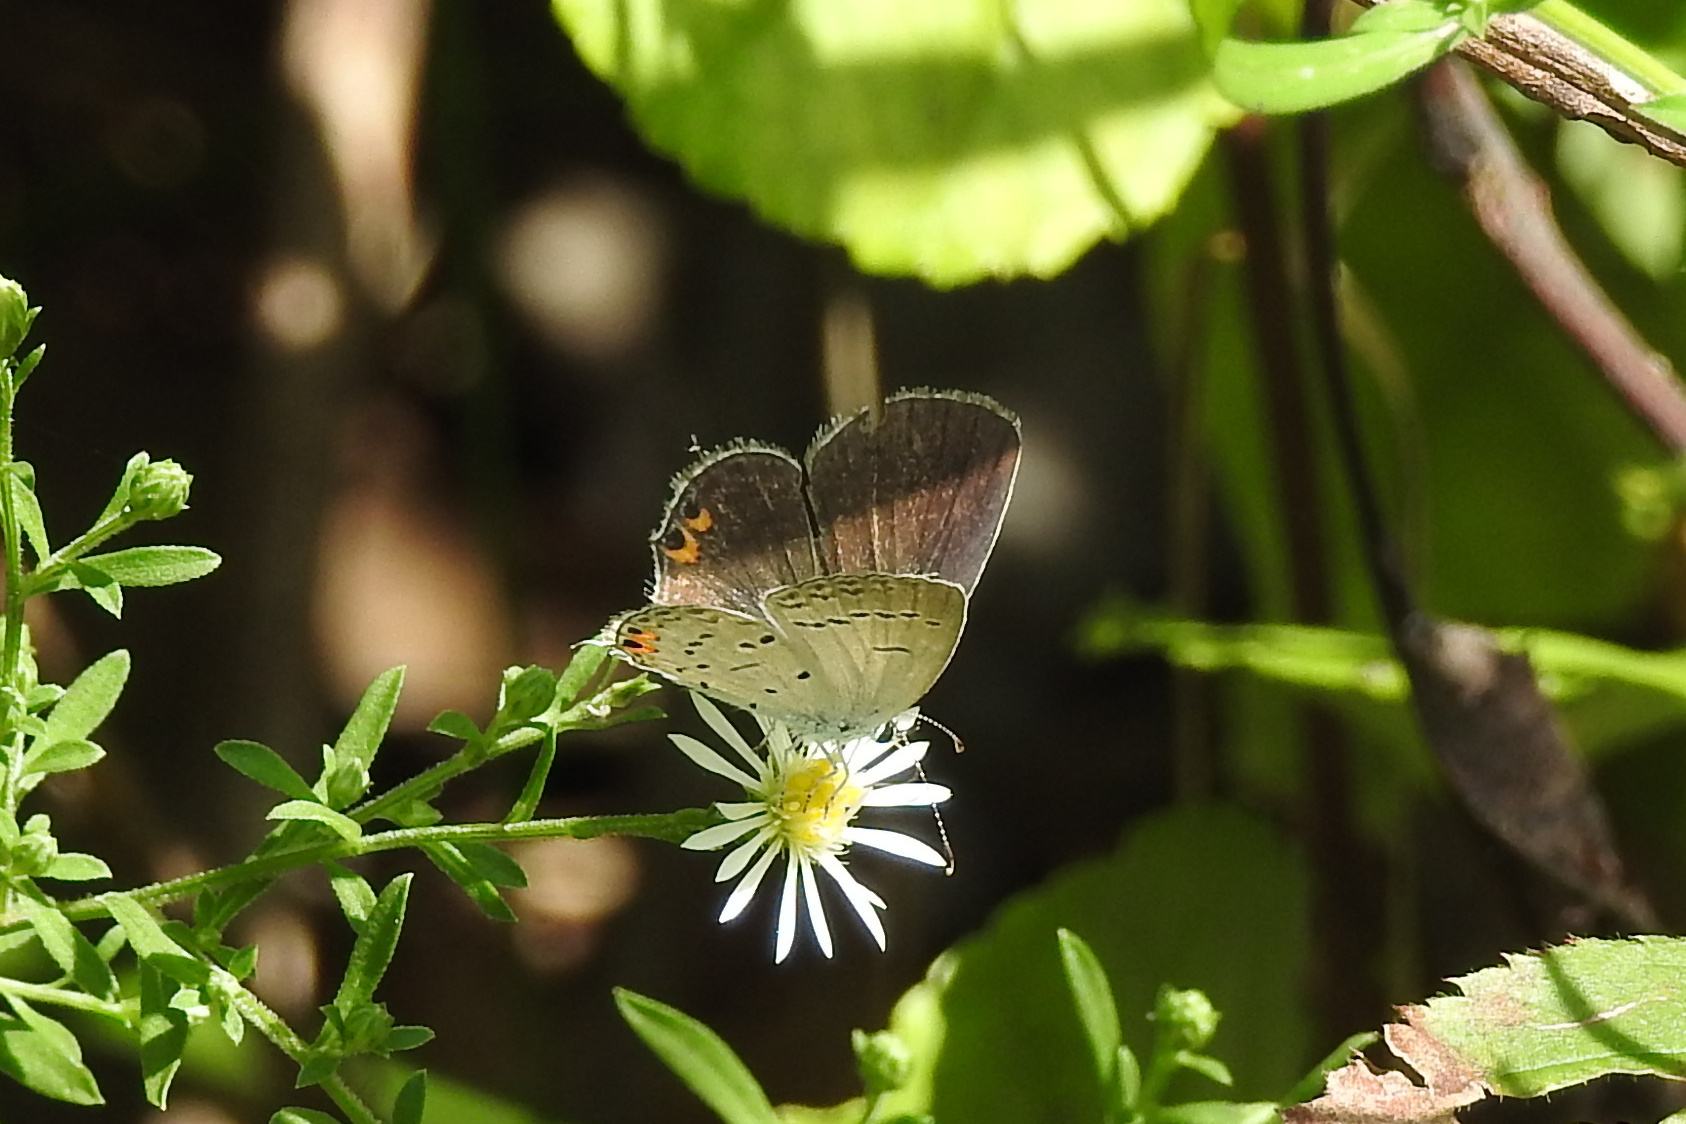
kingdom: Animalia
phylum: Arthropoda
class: Insecta
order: Lepidoptera
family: Lycaenidae
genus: Elkalyce
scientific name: Elkalyce comyntas
